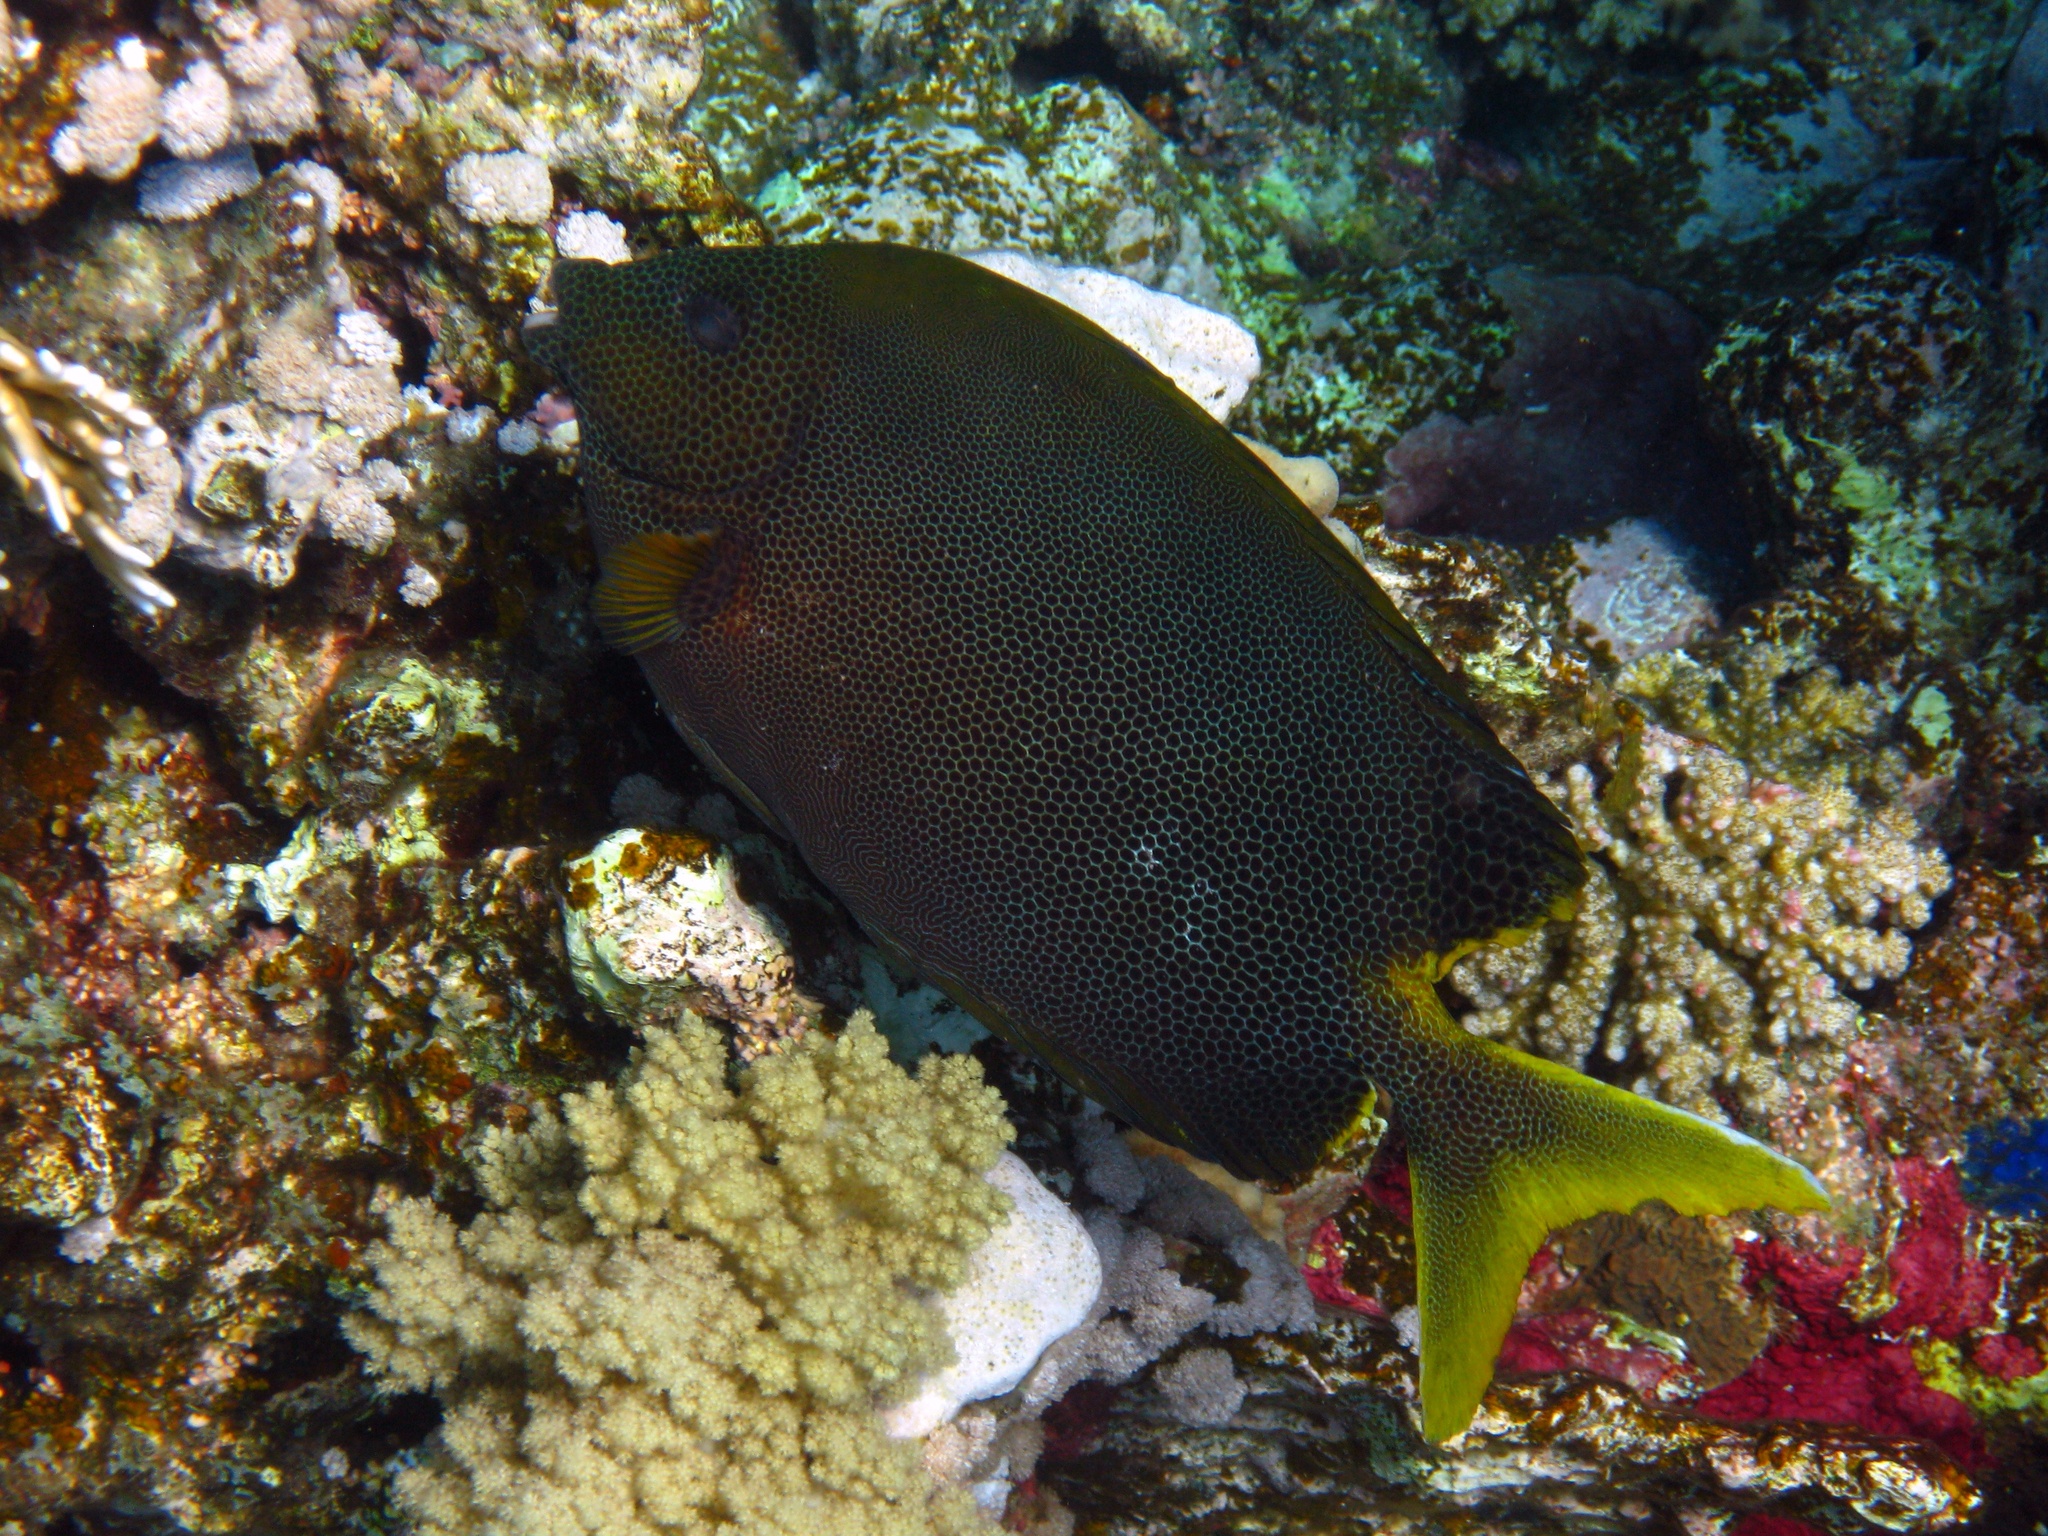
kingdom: Animalia
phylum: Chordata
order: Perciformes
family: Siganidae
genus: Siganus
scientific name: Siganus stellatus
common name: Brown-spotted spinefoot
